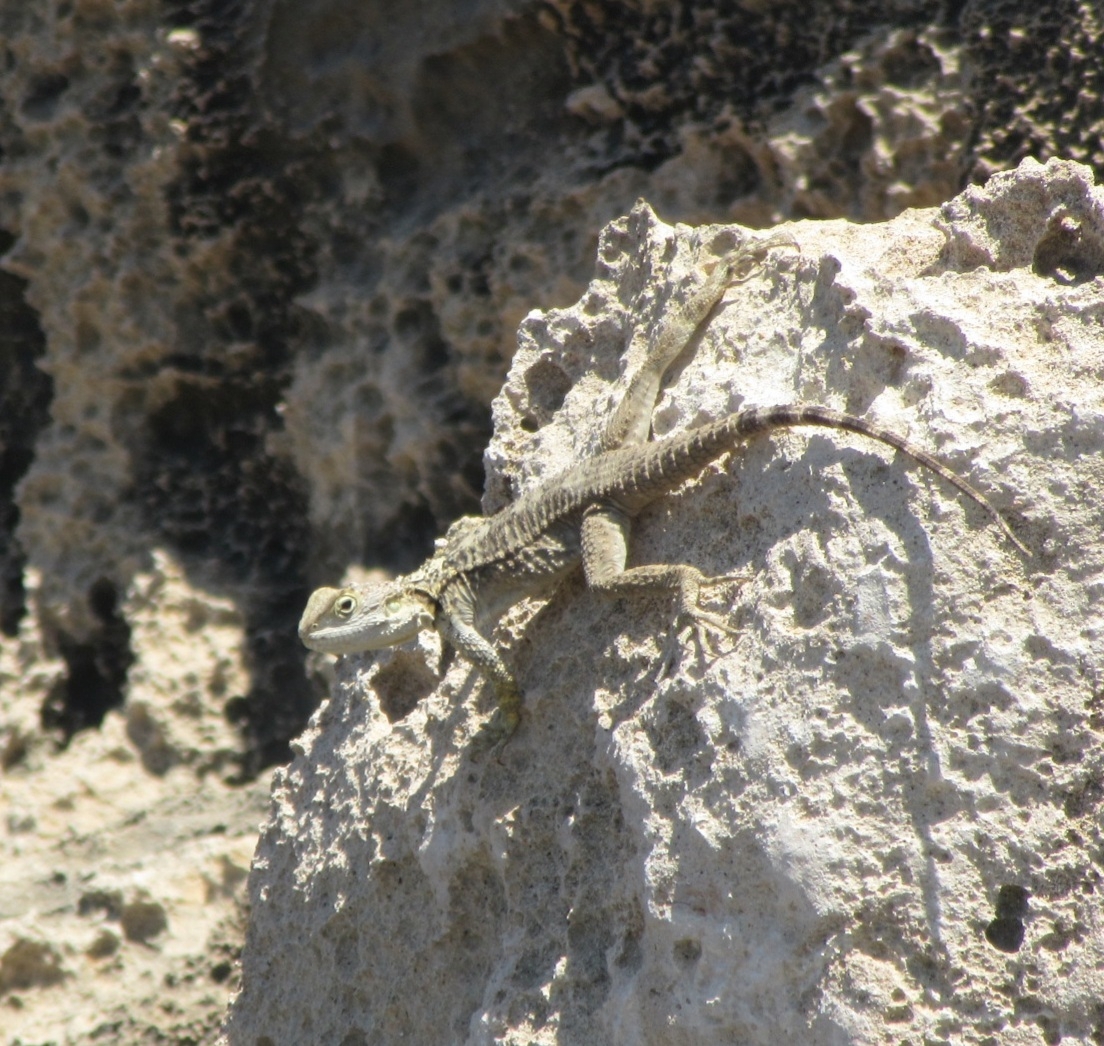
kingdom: Animalia
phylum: Chordata
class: Squamata
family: Agamidae
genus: Laudakia
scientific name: Laudakia
